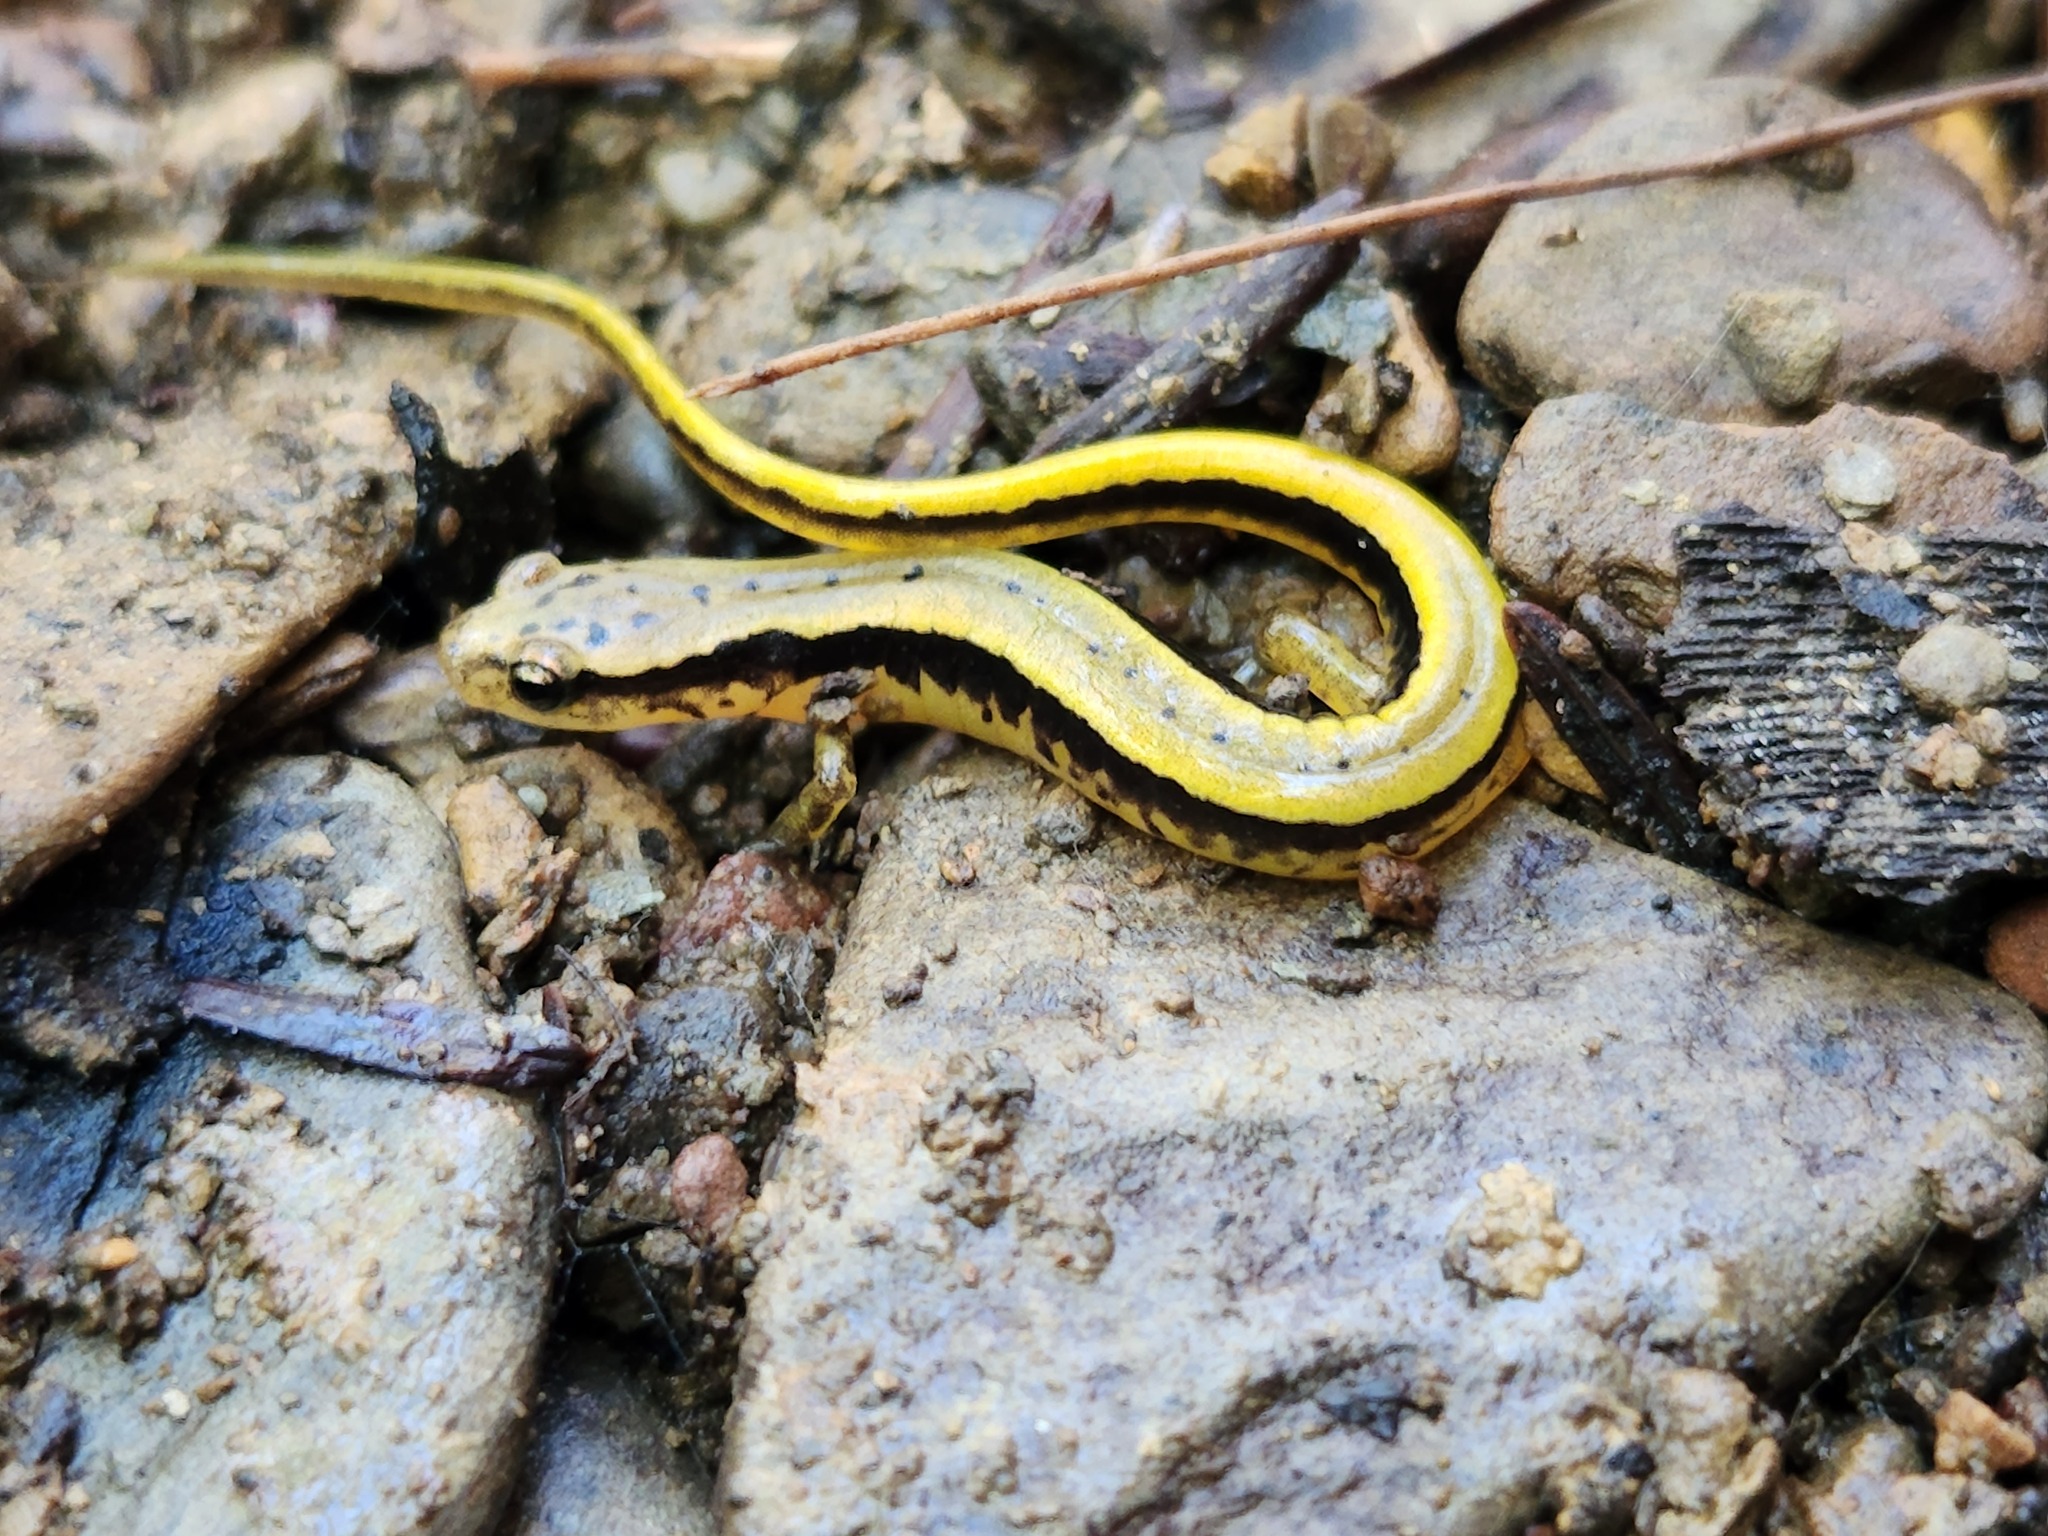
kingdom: Animalia
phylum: Chordata
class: Amphibia
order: Caudata
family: Plethodontidae
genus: Eurycea
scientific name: Eurycea cirrigera
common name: Southern two-lined salamander
